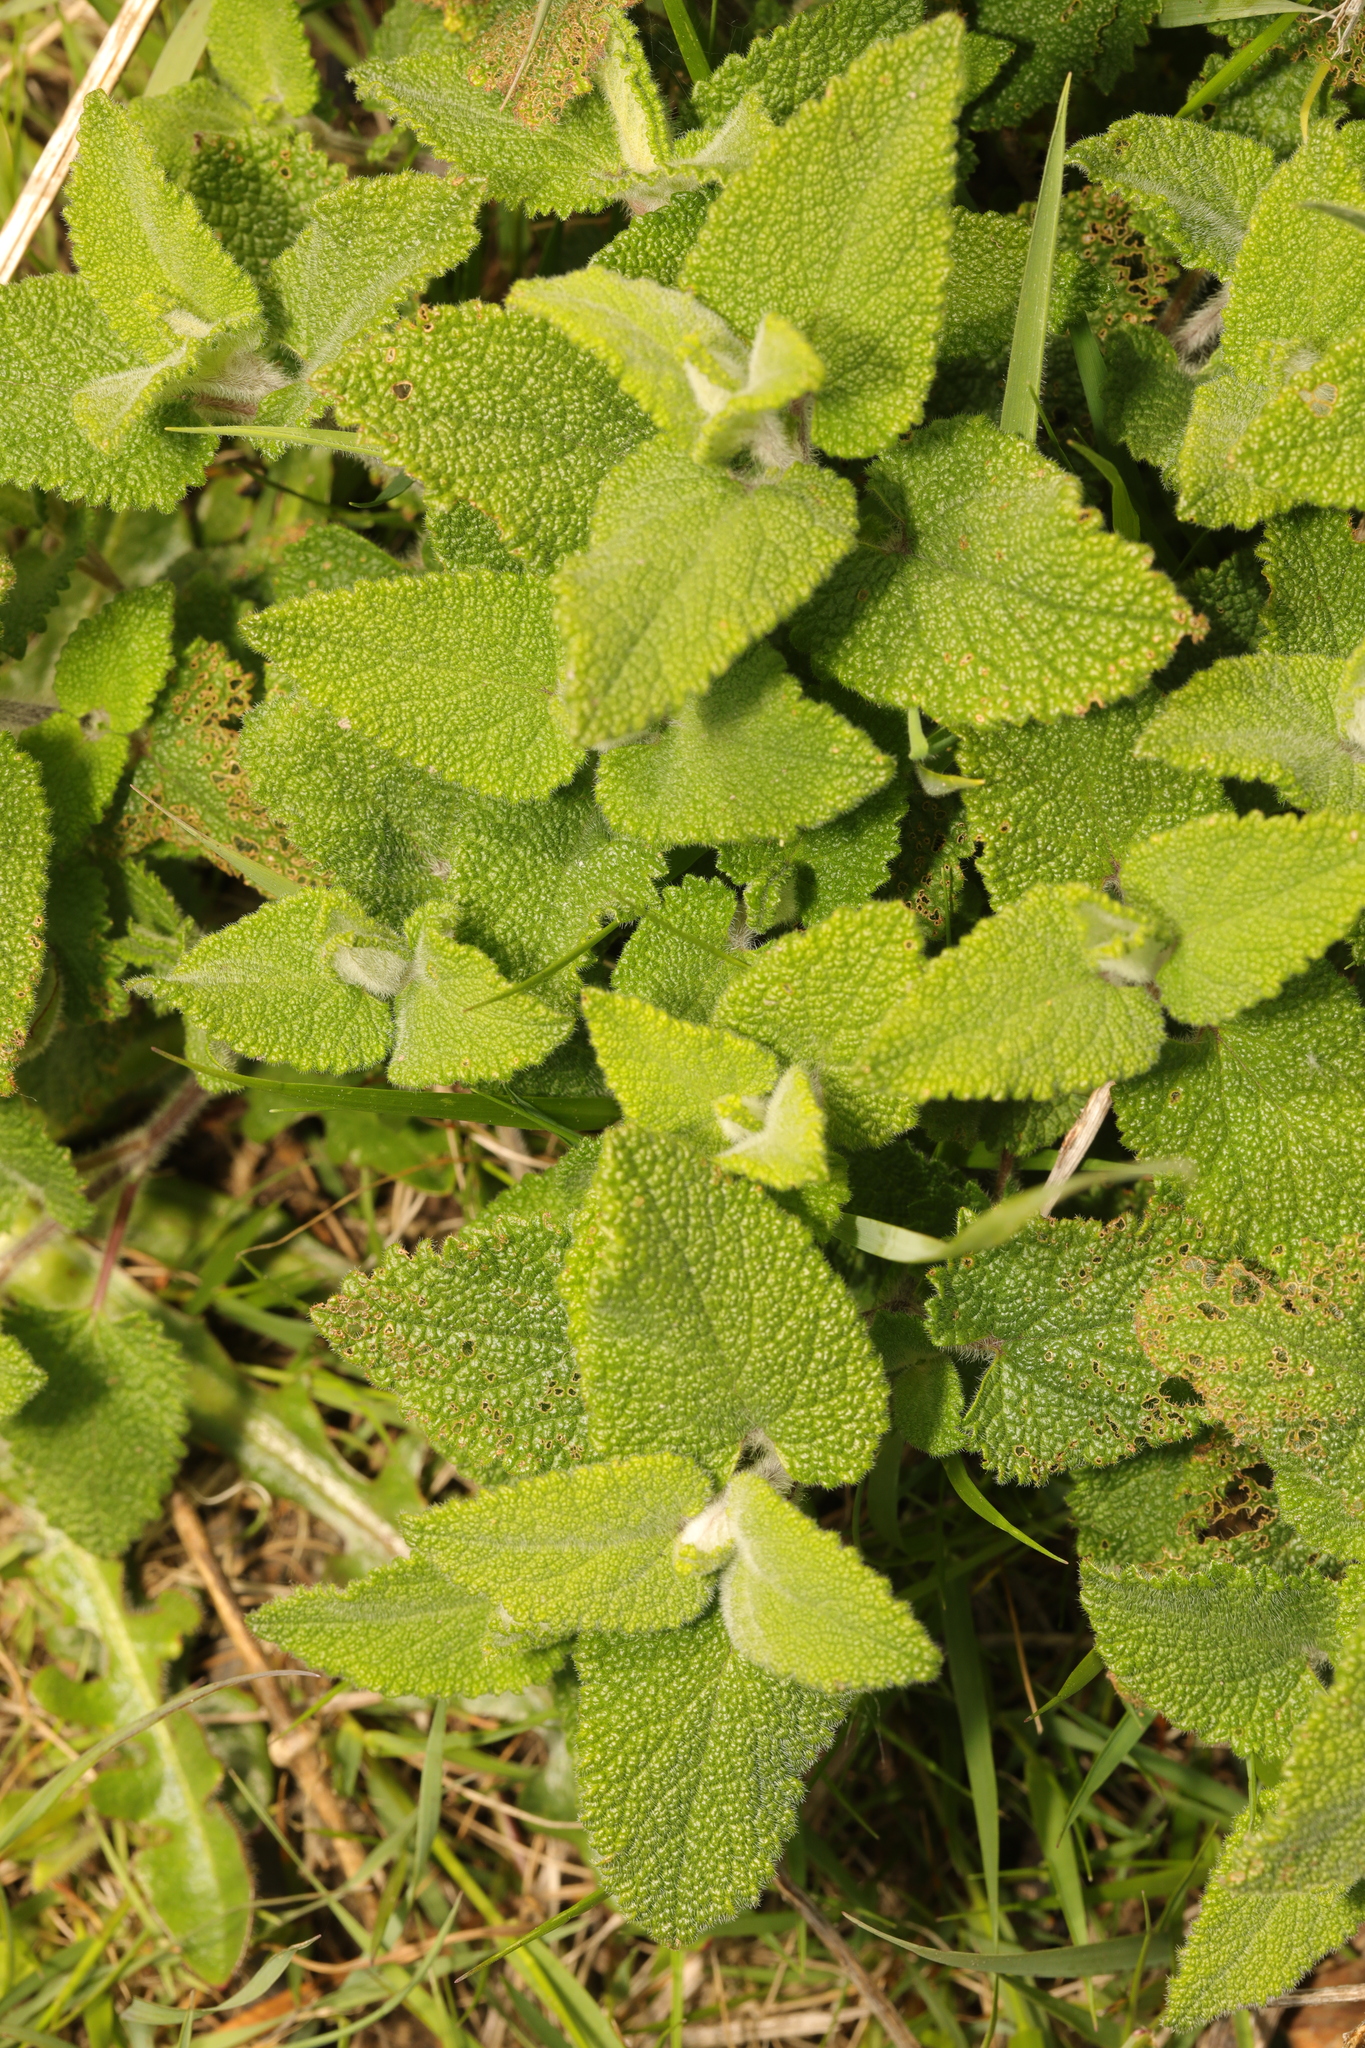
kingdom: Plantae
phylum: Tracheophyta
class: Magnoliopsida
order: Lamiales
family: Lamiaceae
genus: Teucrium
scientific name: Teucrium scorodonia
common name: Woodland germander
